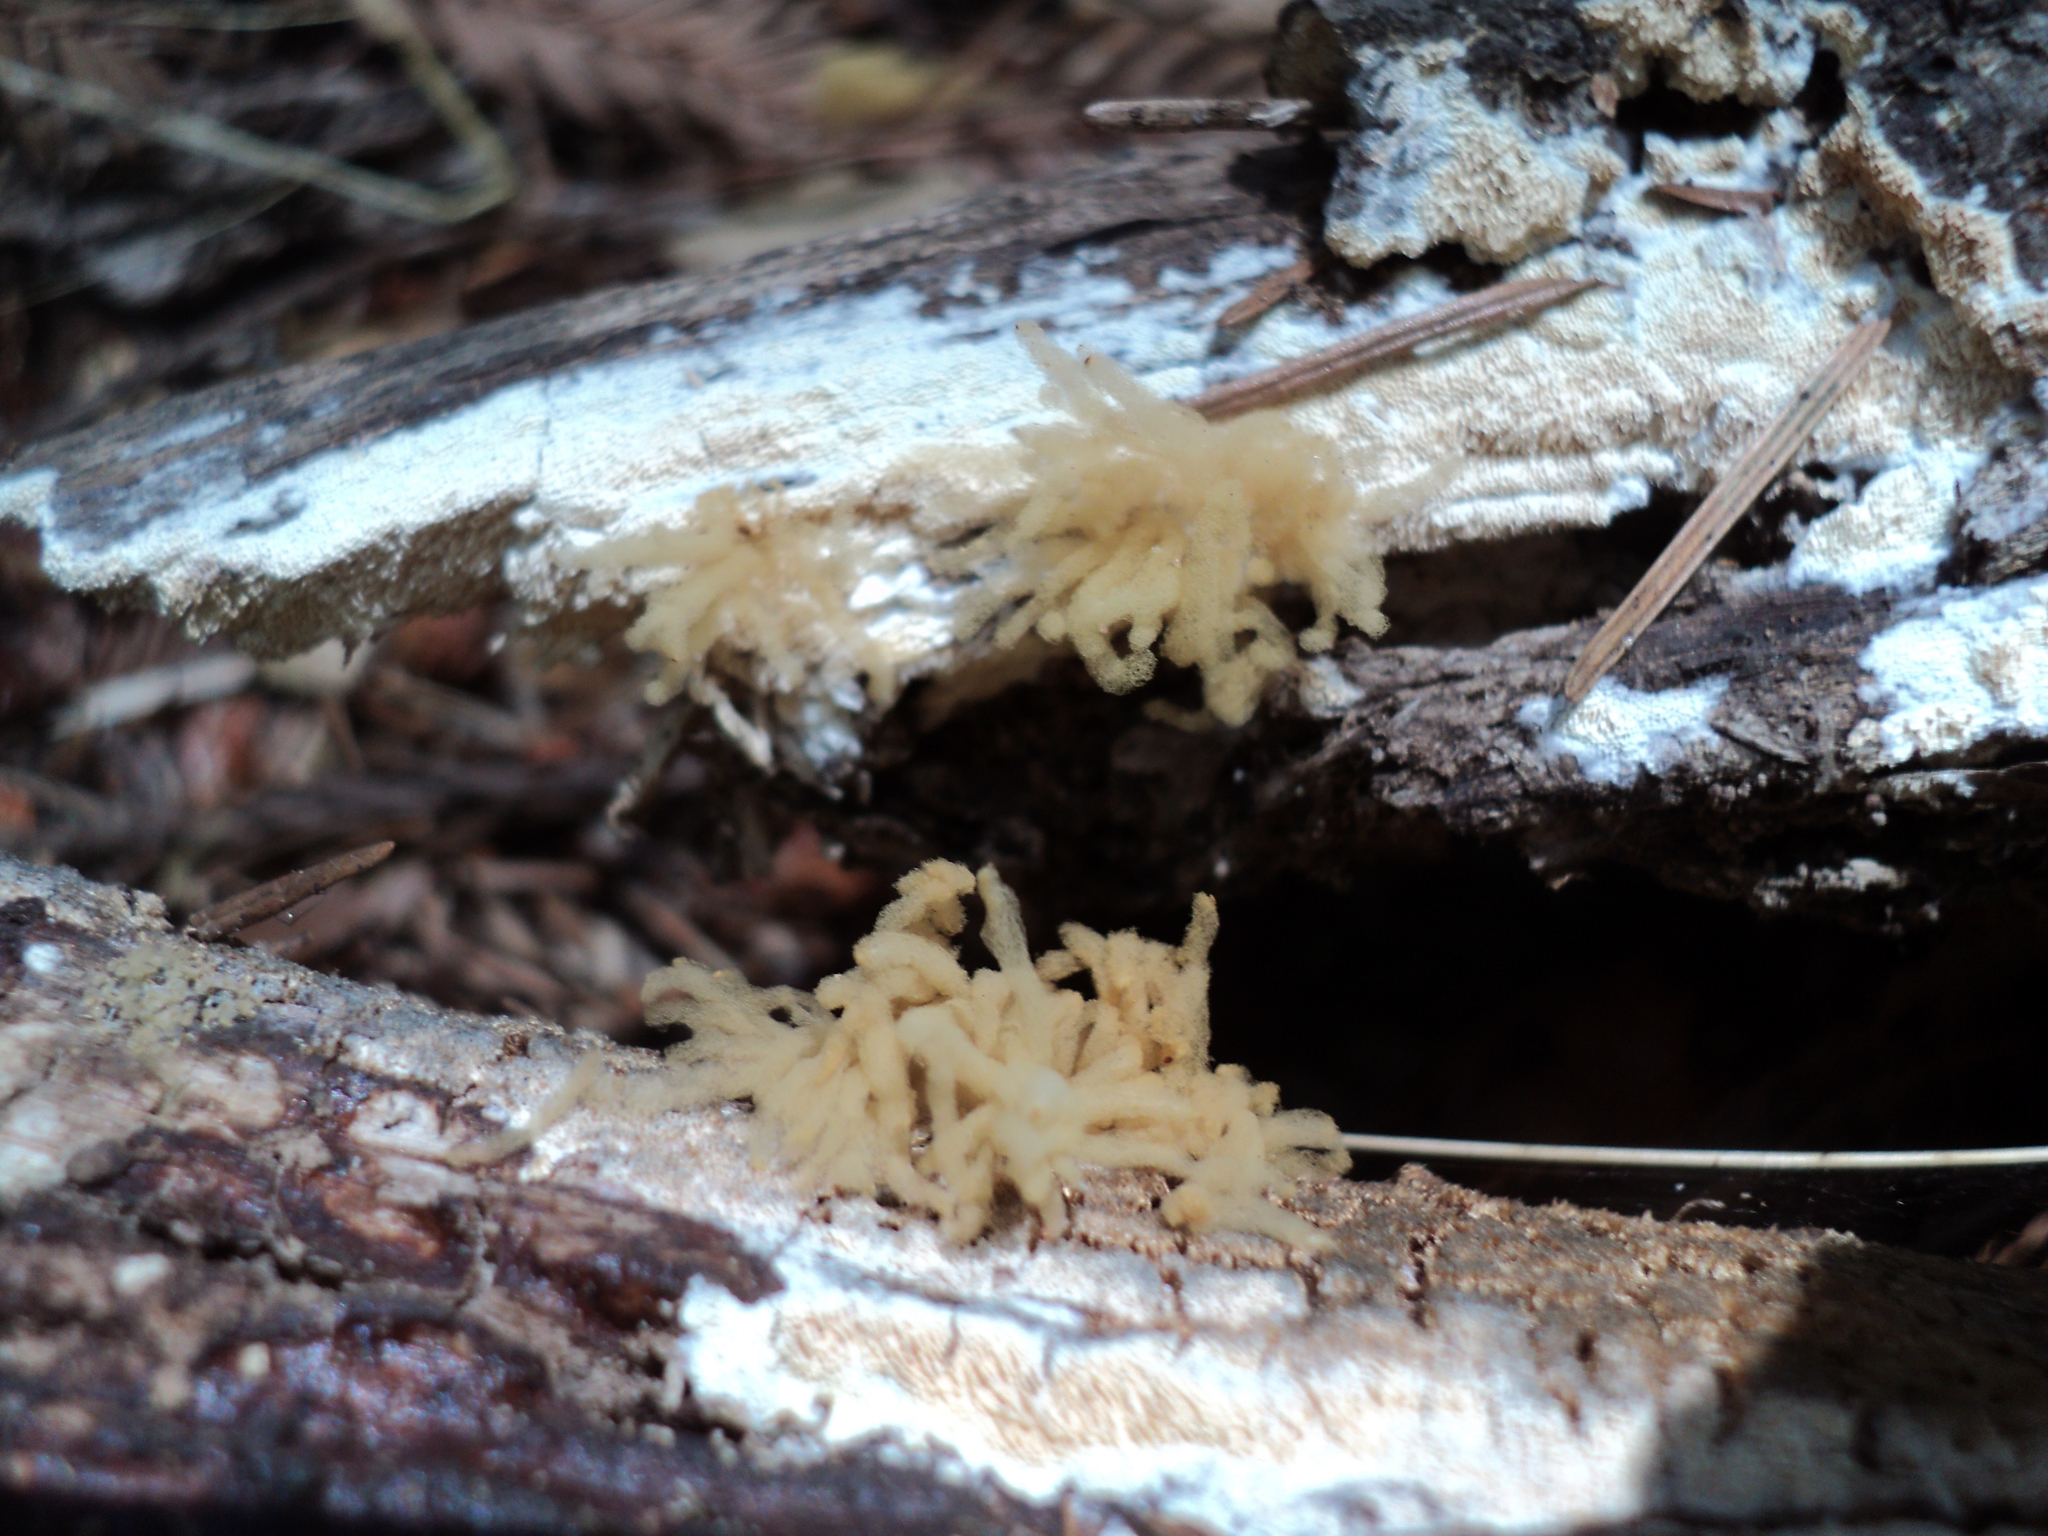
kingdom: Protozoa
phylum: Mycetozoa
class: Myxomycetes
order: Trichiales
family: Arcyriaceae
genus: Arcyria
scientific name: Arcyria obvelata
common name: Yellow carnival candy slime
